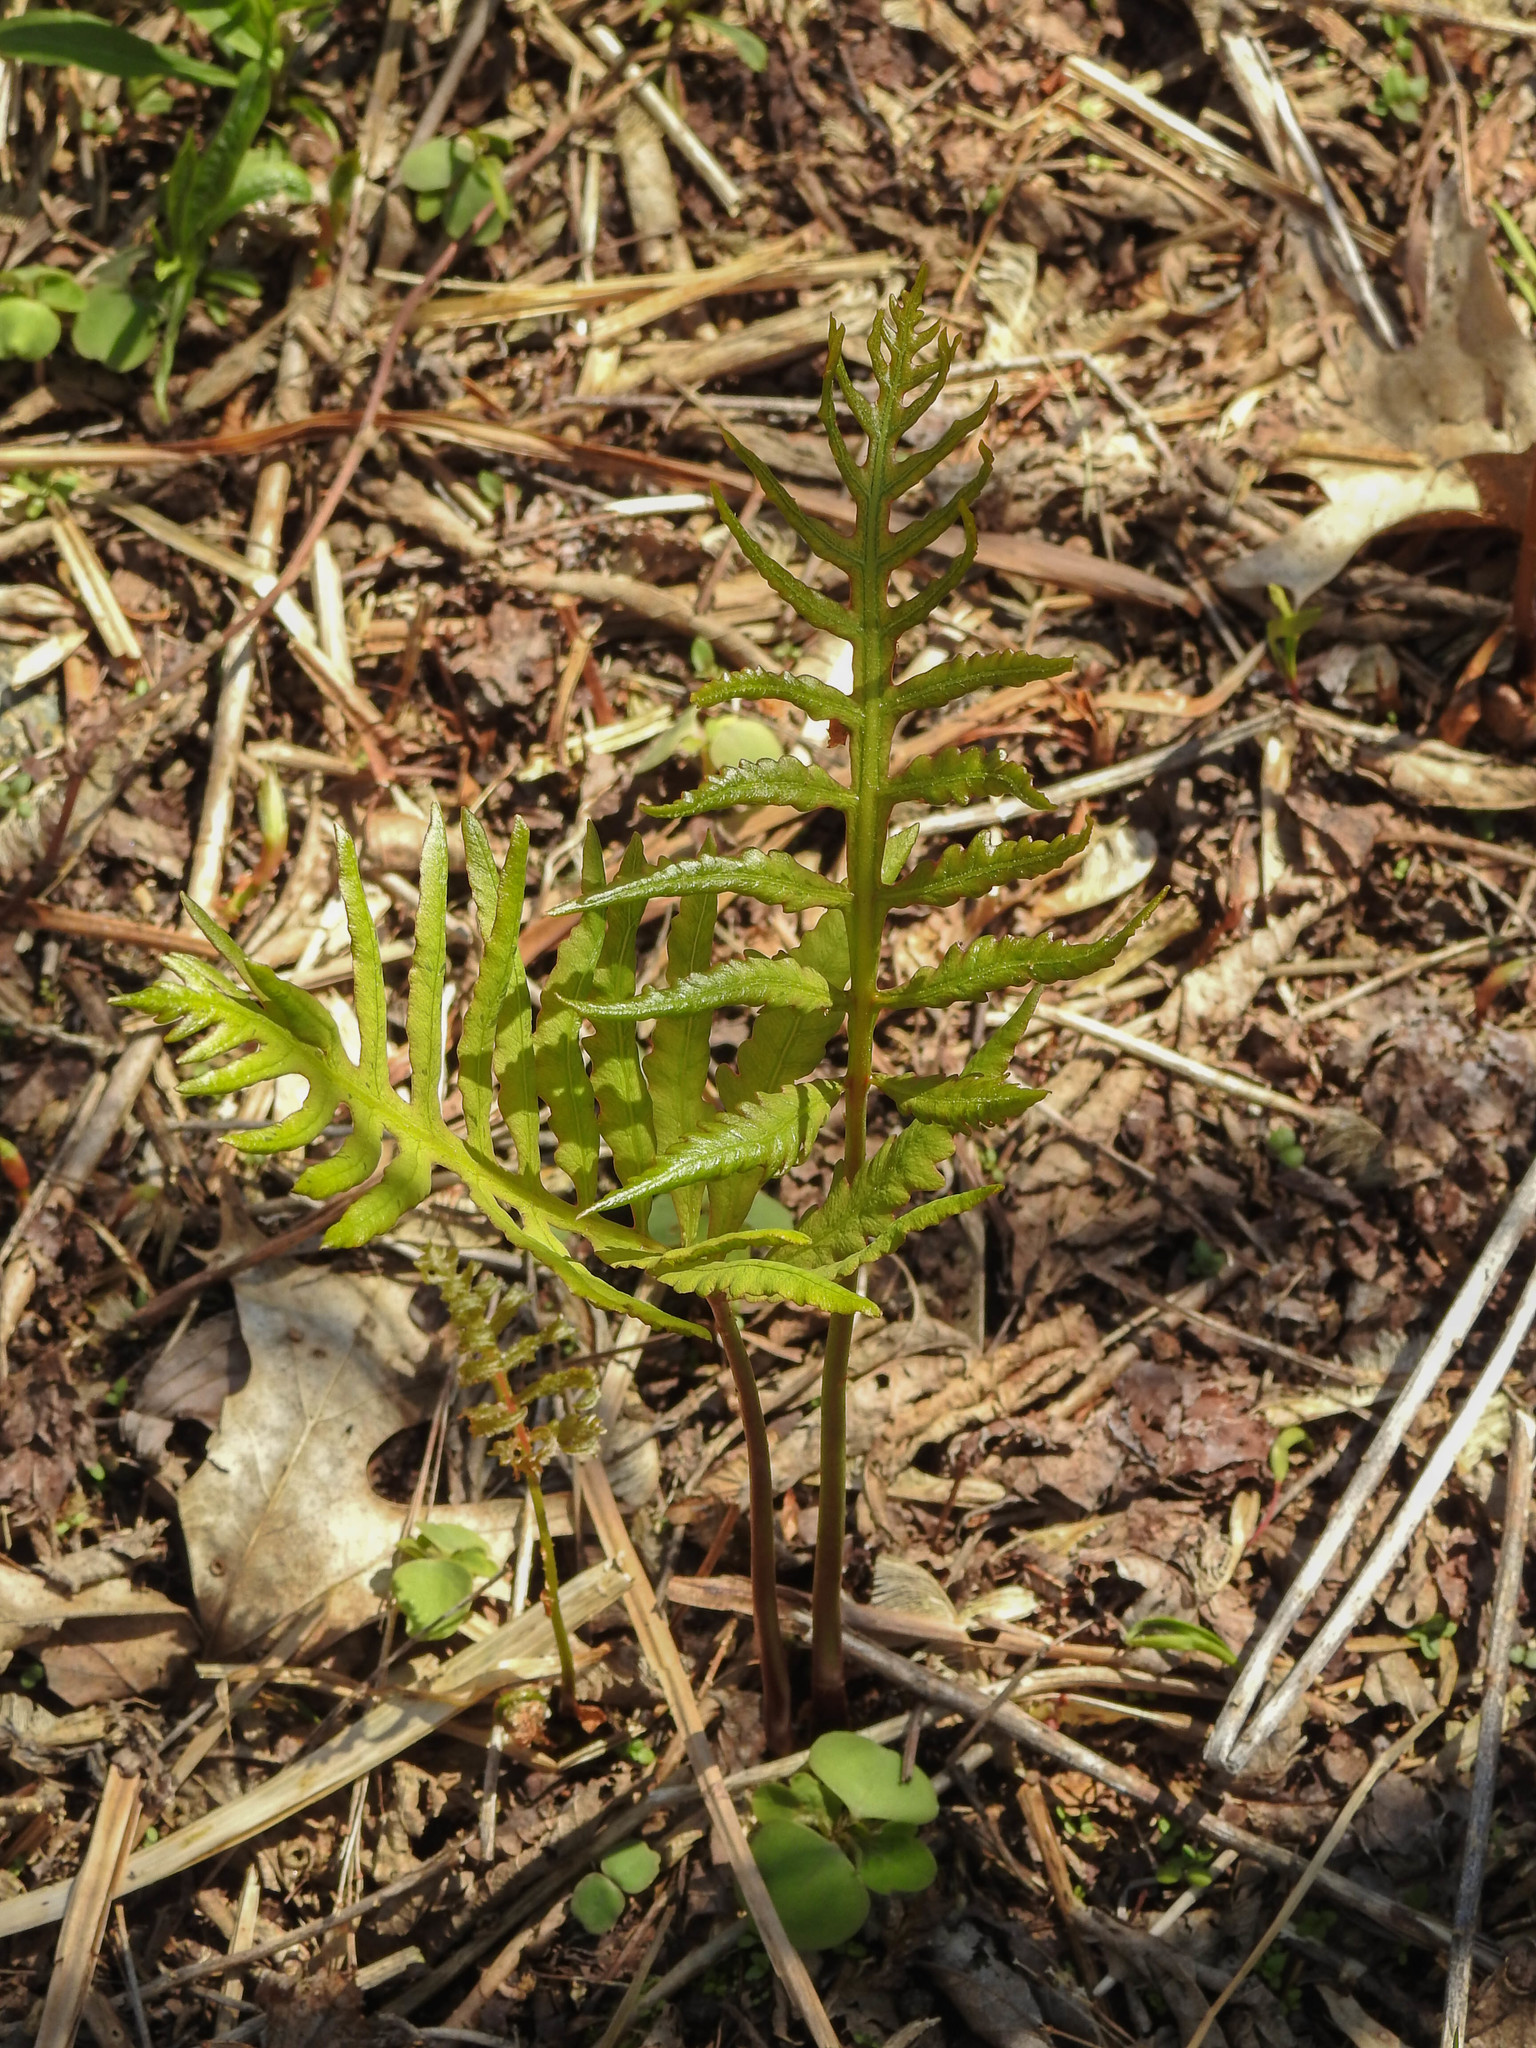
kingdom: Plantae
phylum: Tracheophyta
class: Polypodiopsida
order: Polypodiales
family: Onocleaceae
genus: Onoclea
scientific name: Onoclea sensibilis
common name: Sensitive fern
